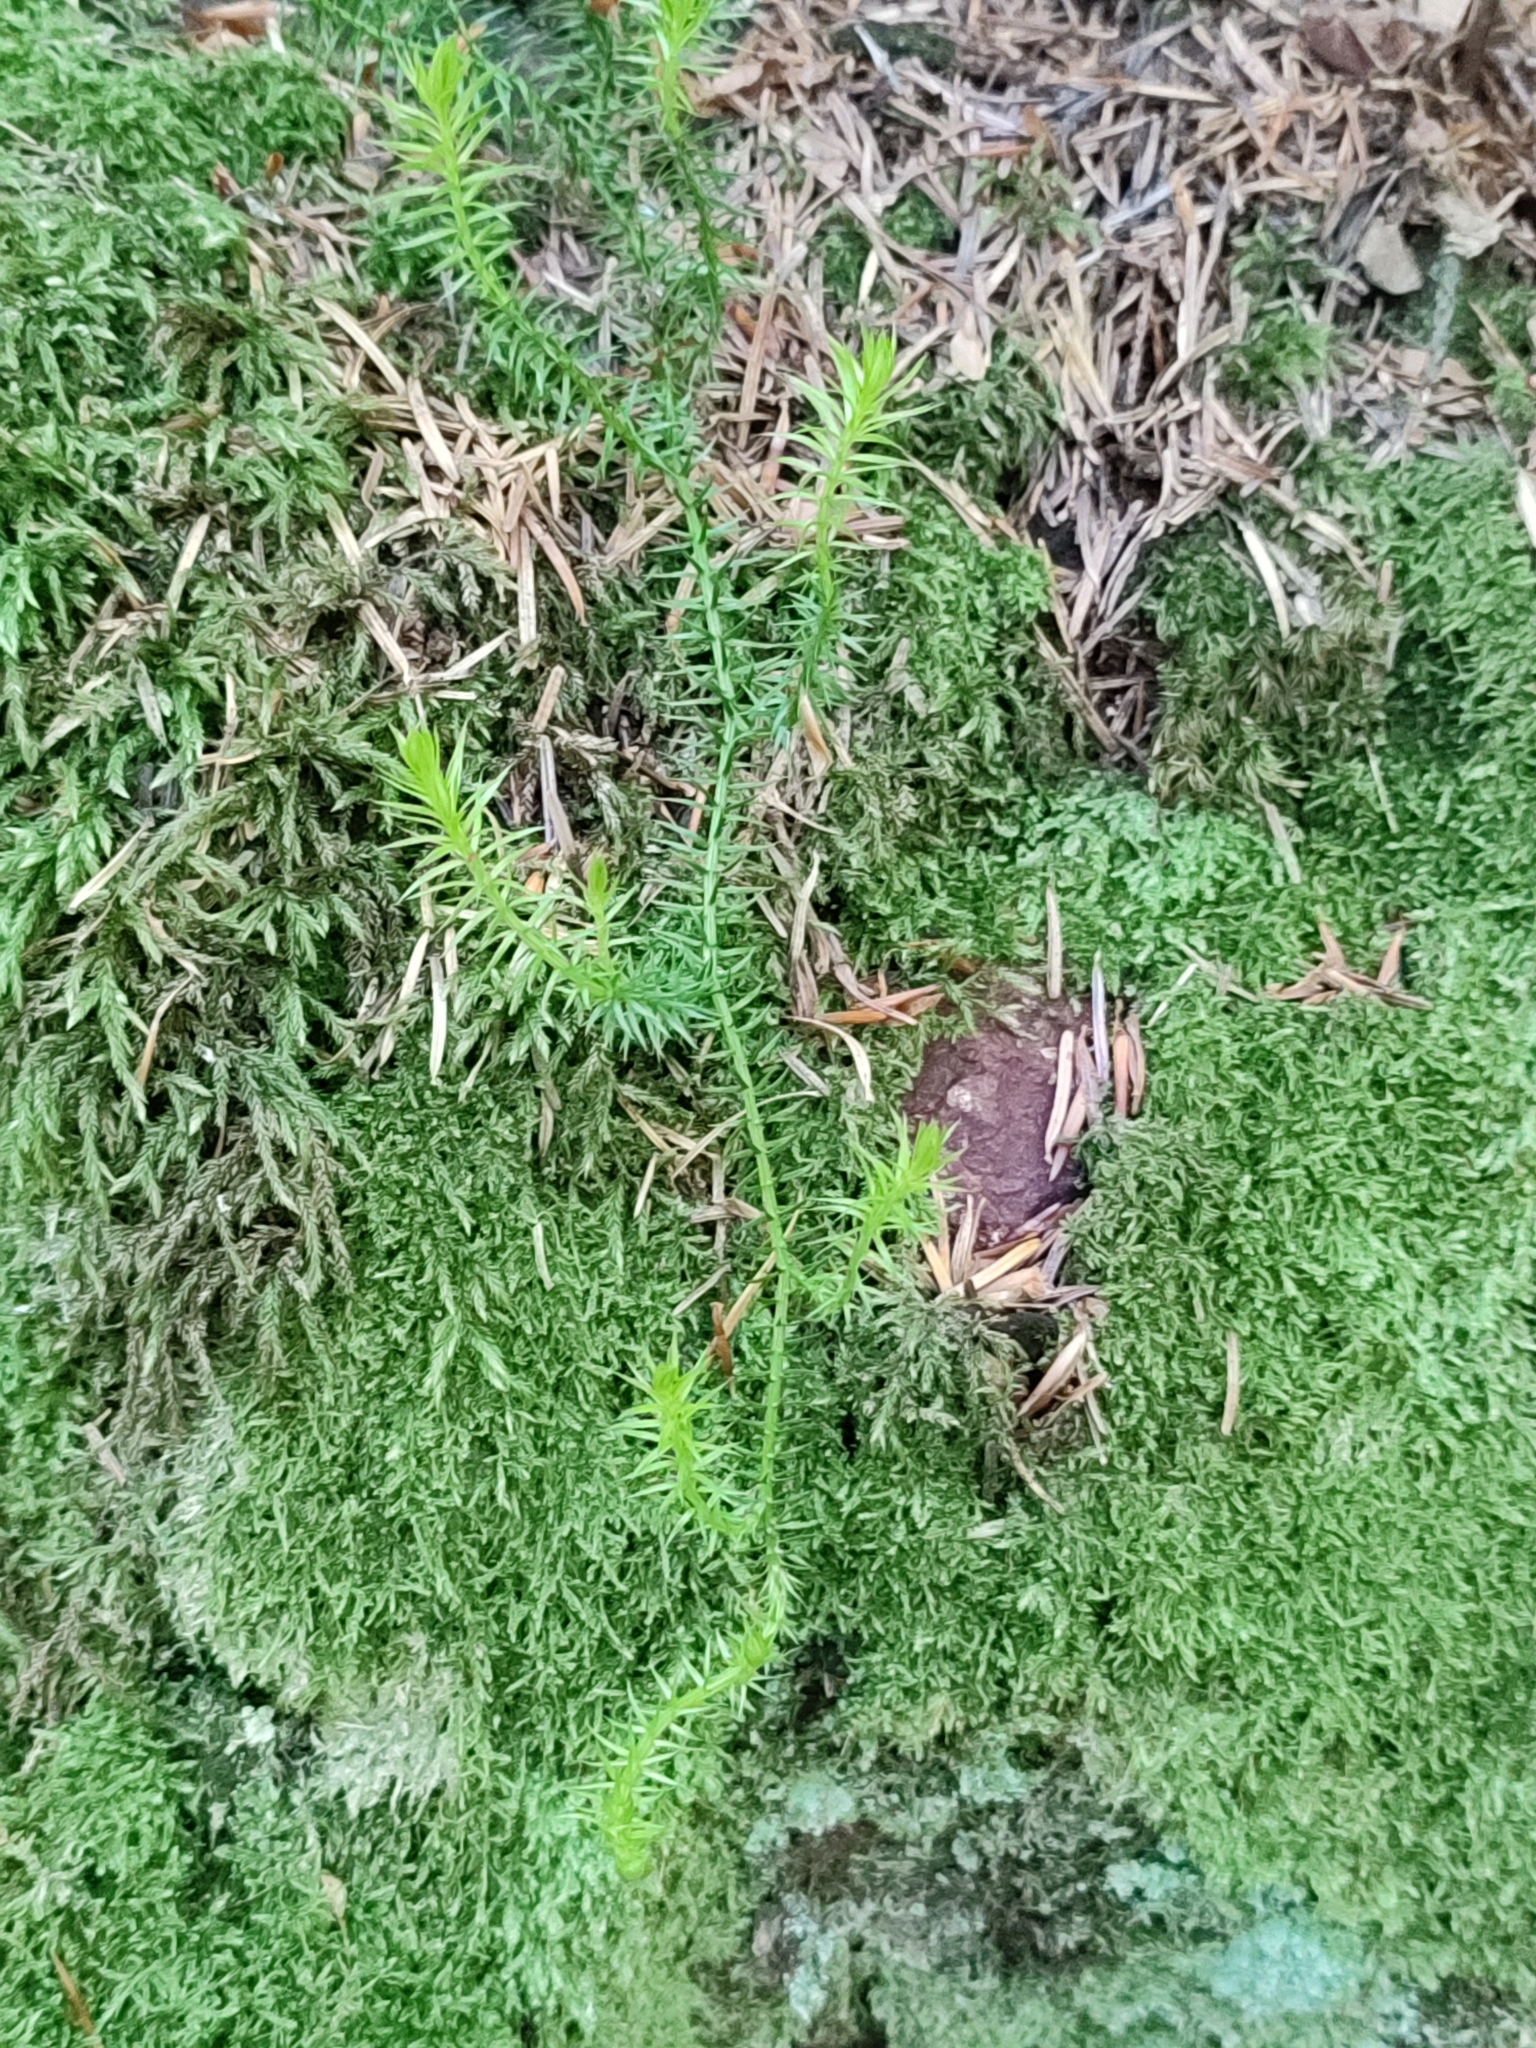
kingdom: Plantae
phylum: Tracheophyta
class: Lycopodiopsida
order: Lycopodiales
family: Lycopodiaceae
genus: Spinulum
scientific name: Spinulum annotinum
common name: Interrupted club-moss
